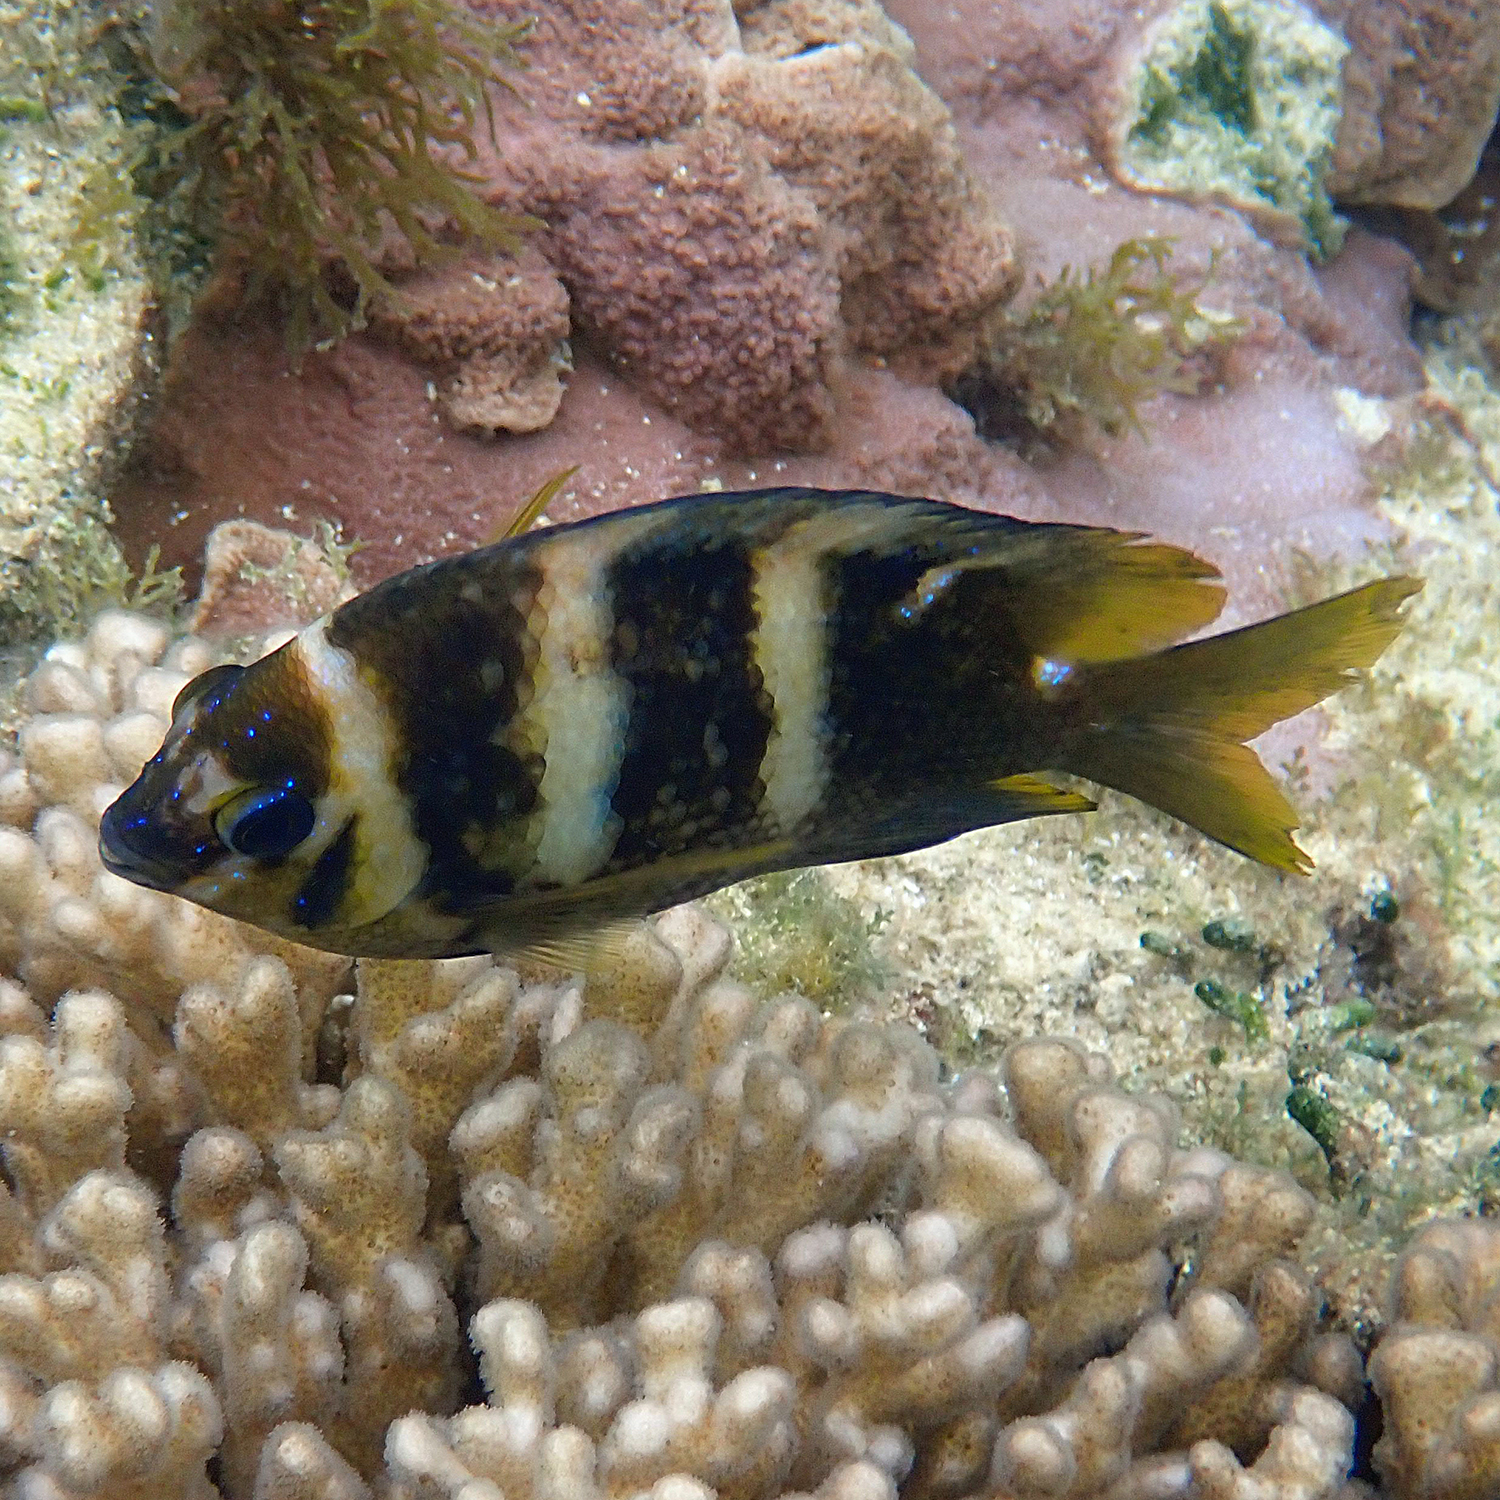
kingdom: Animalia
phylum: Chordata
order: Perciformes
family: Pomacentridae
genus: Parma
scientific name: Parma polylepis
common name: Banded parma
